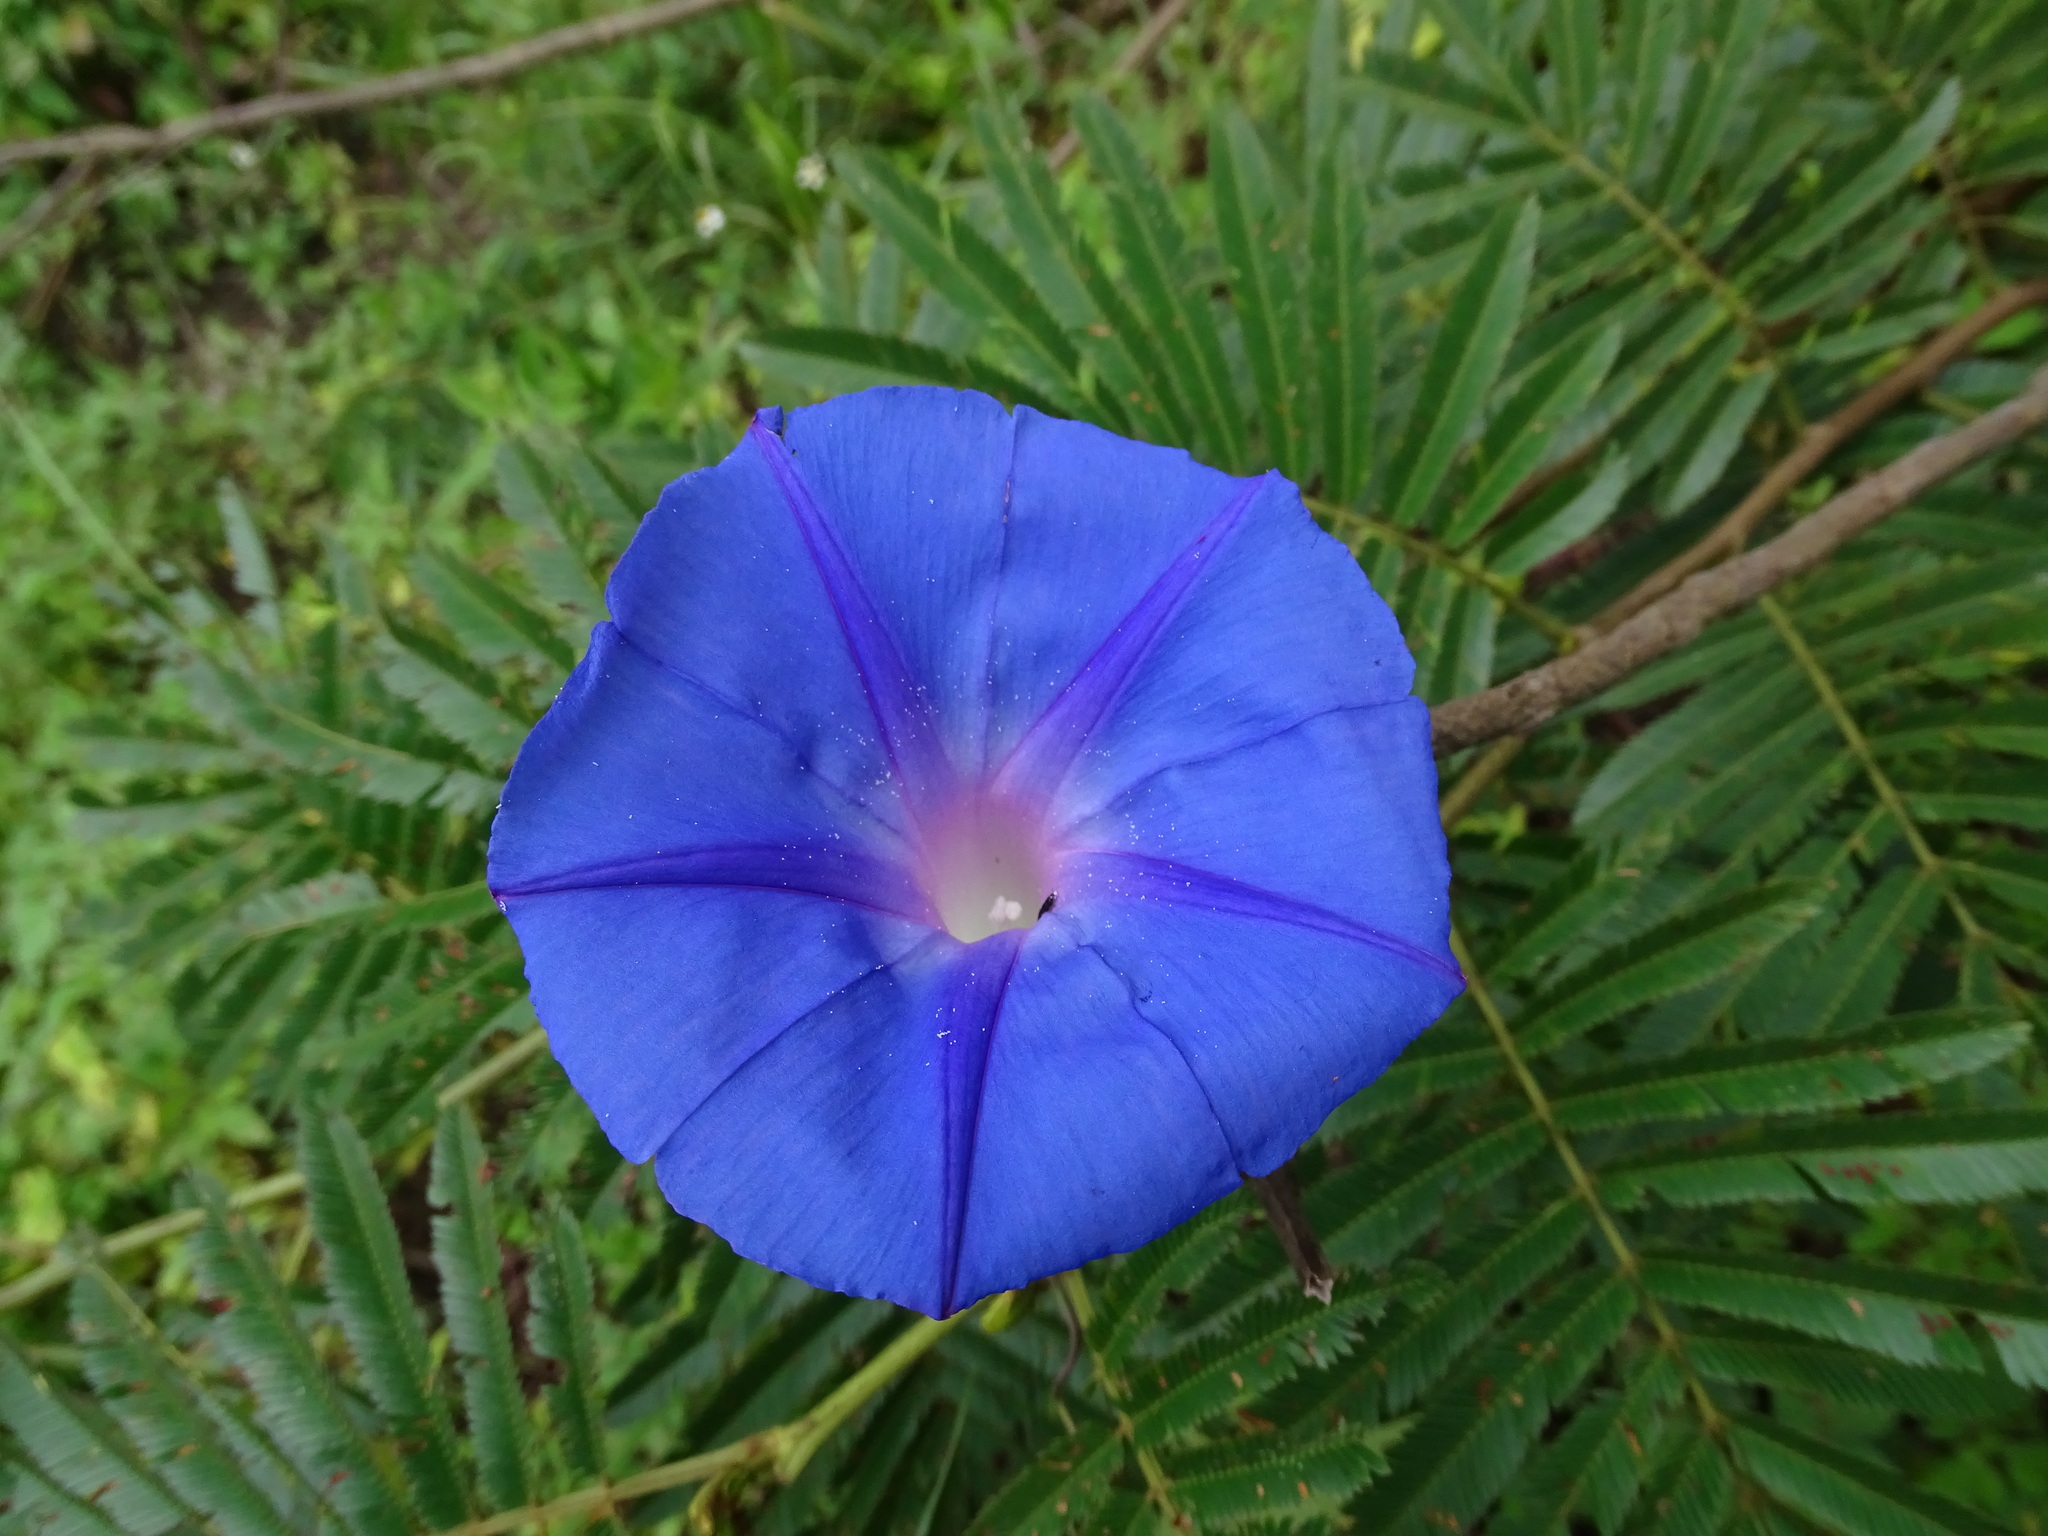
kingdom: Plantae
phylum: Tracheophyta
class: Magnoliopsida
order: Solanales
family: Convolvulaceae
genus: Ipomoea
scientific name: Ipomoea indica
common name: Blue dawnflower
